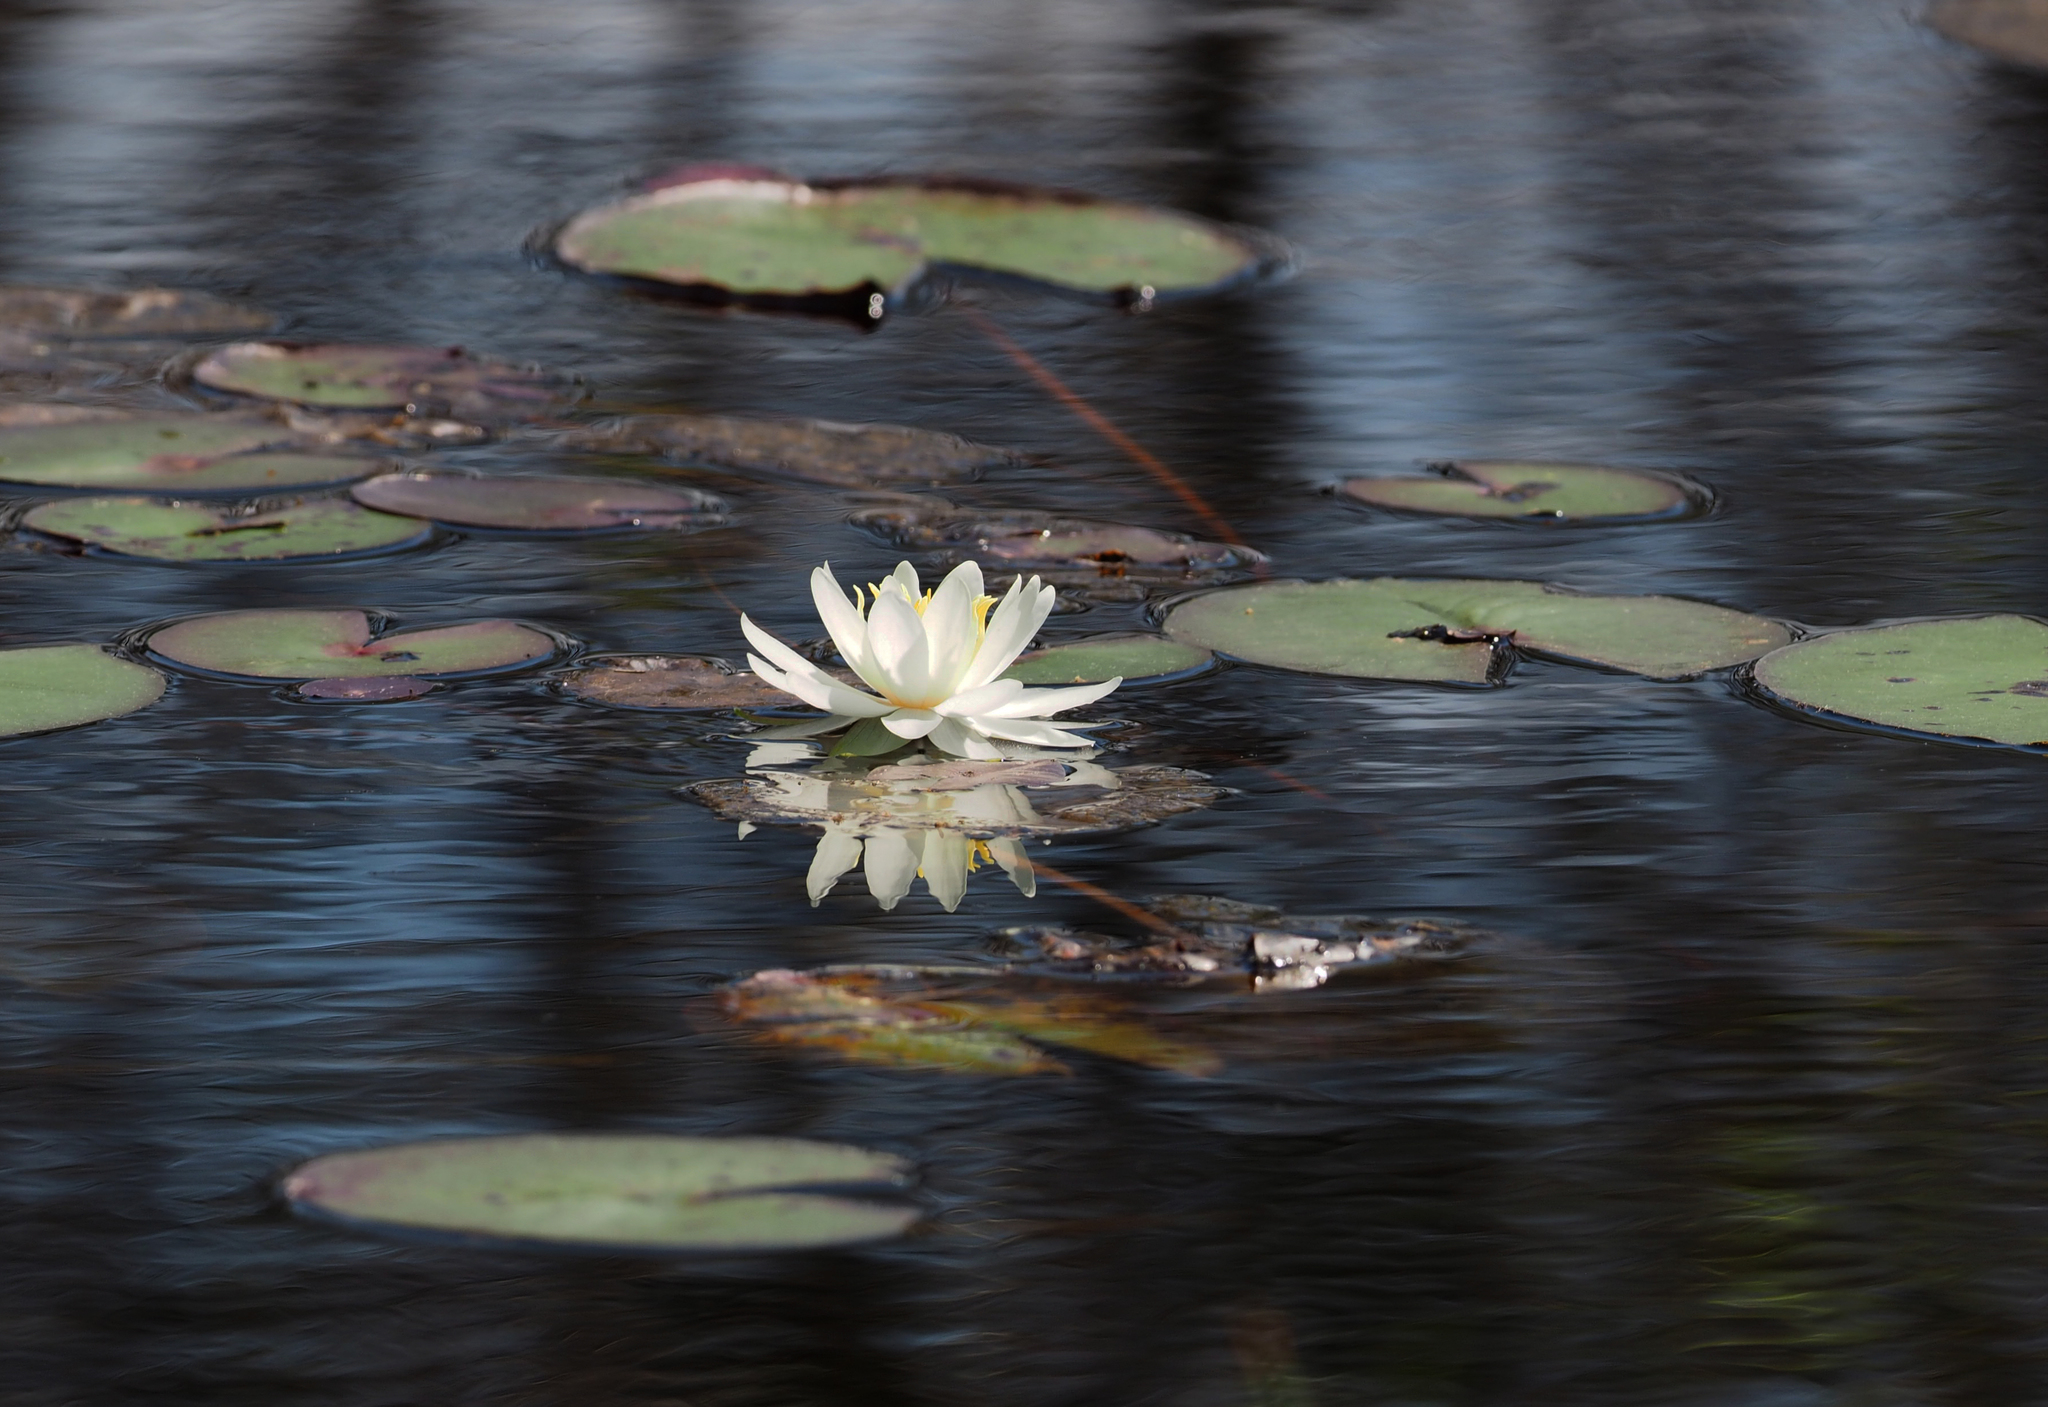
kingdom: Plantae
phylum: Tracheophyta
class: Magnoliopsida
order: Nymphaeales
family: Nymphaeaceae
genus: Nymphaea
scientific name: Nymphaea odorata
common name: Fragrant water-lily
